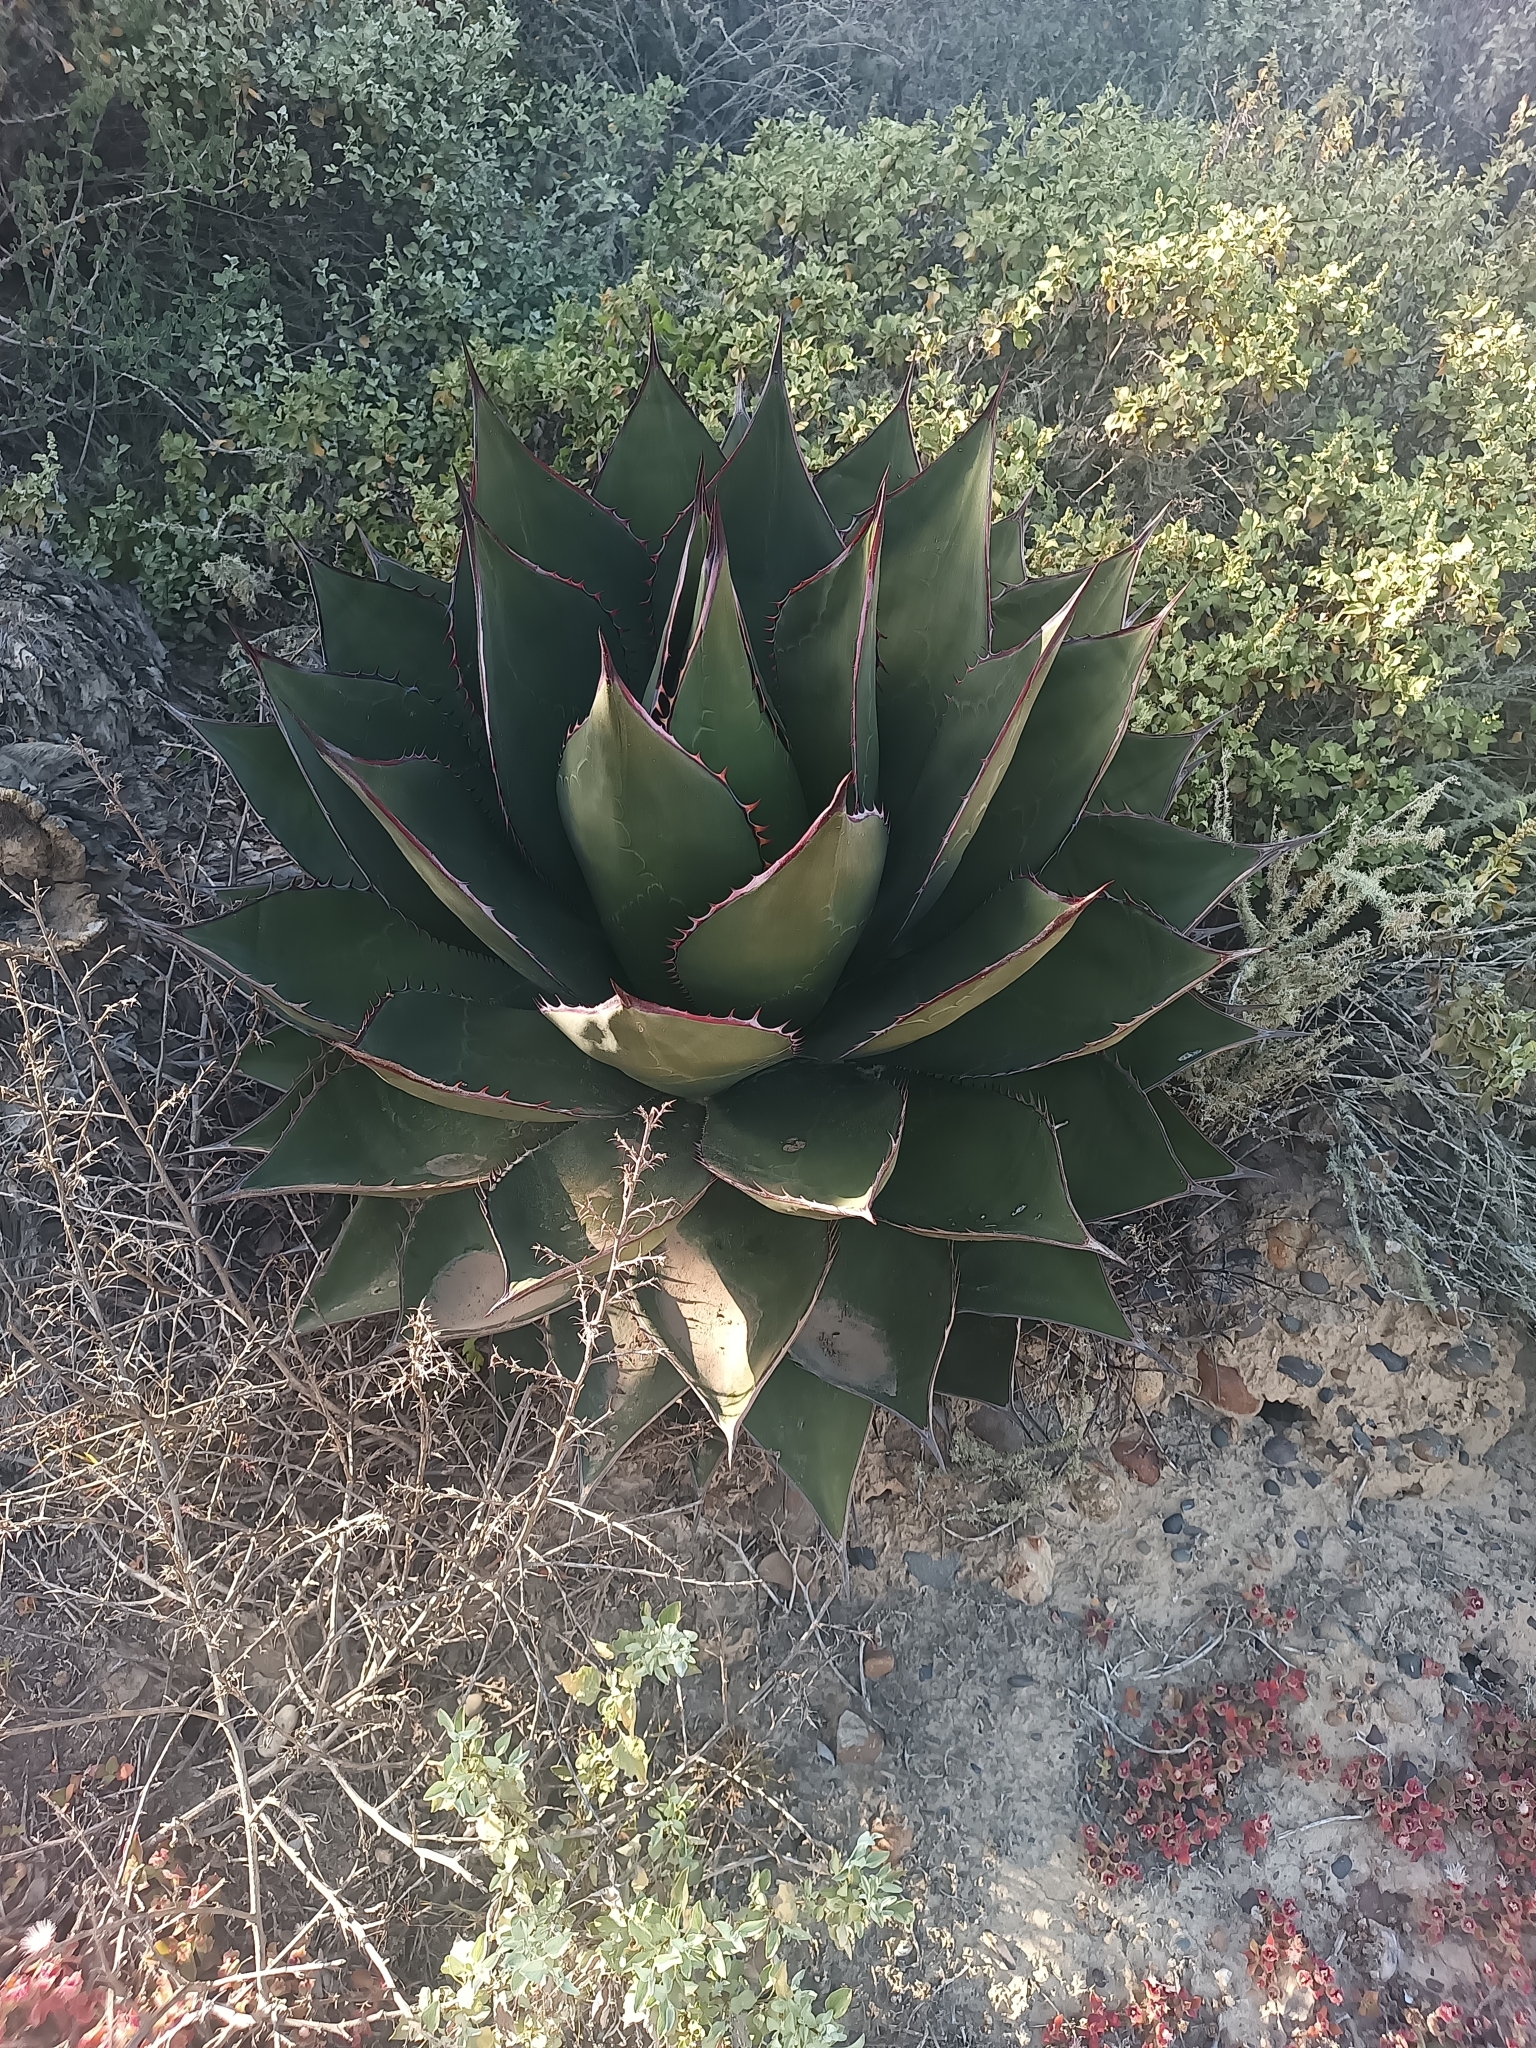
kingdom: Plantae
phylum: Tracheophyta
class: Liliopsida
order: Asparagales
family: Asparagaceae
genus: Agave
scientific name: Agave shawii
